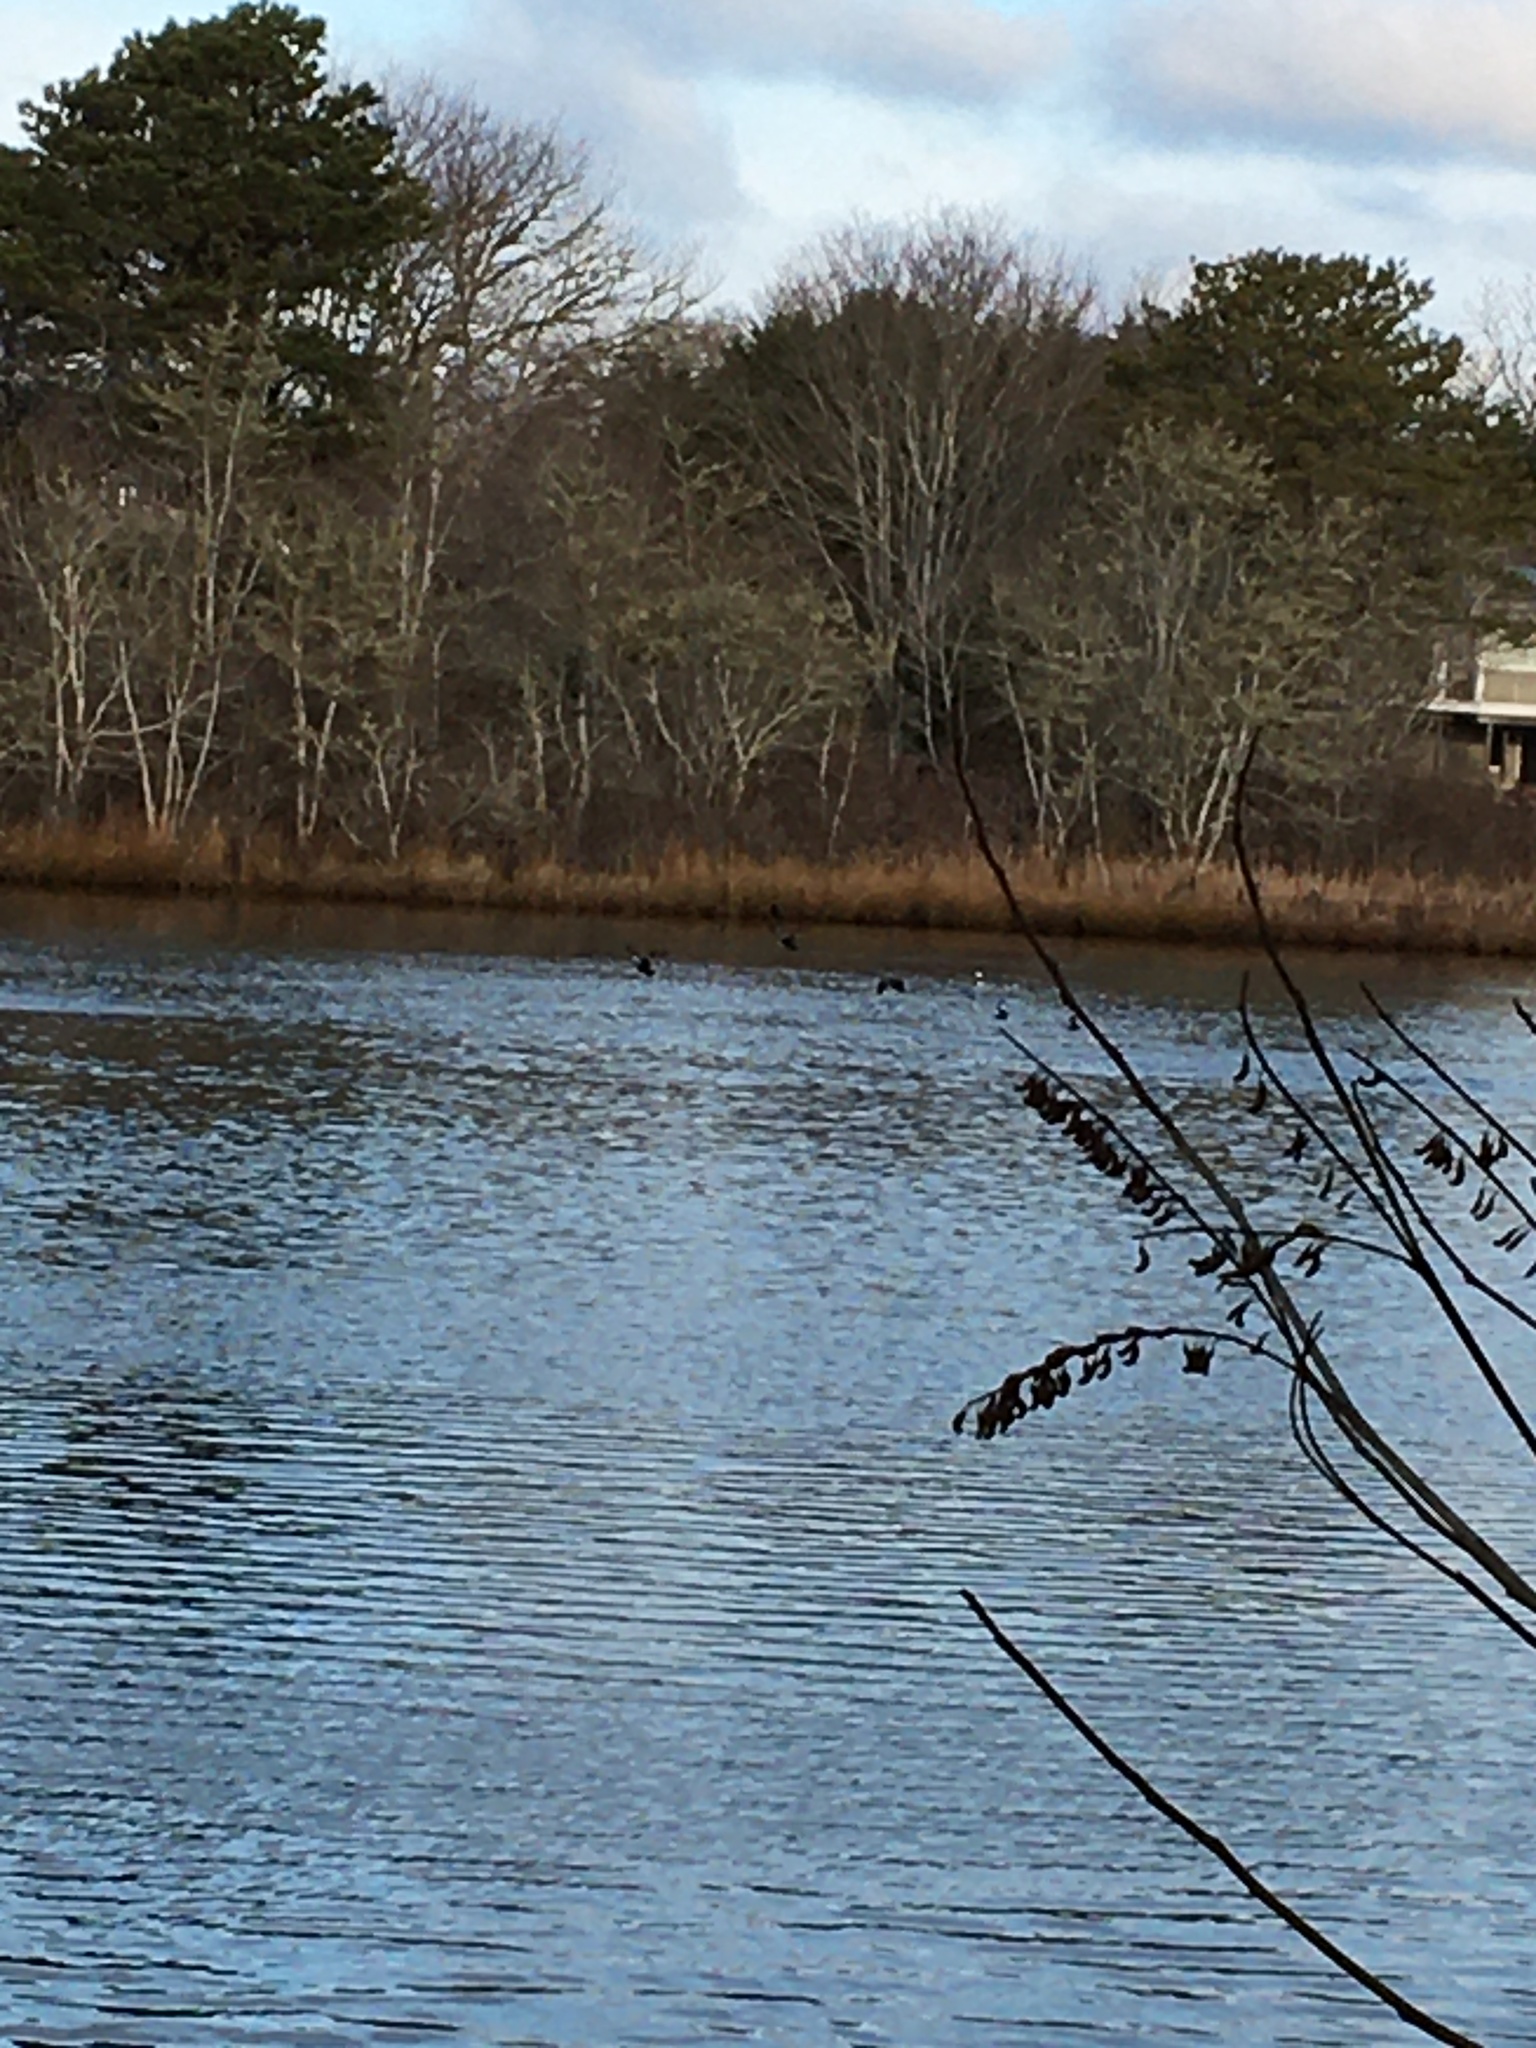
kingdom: Animalia
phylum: Chordata
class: Aves
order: Anseriformes
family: Anatidae
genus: Bucephala
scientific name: Bucephala albeola
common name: Bufflehead
